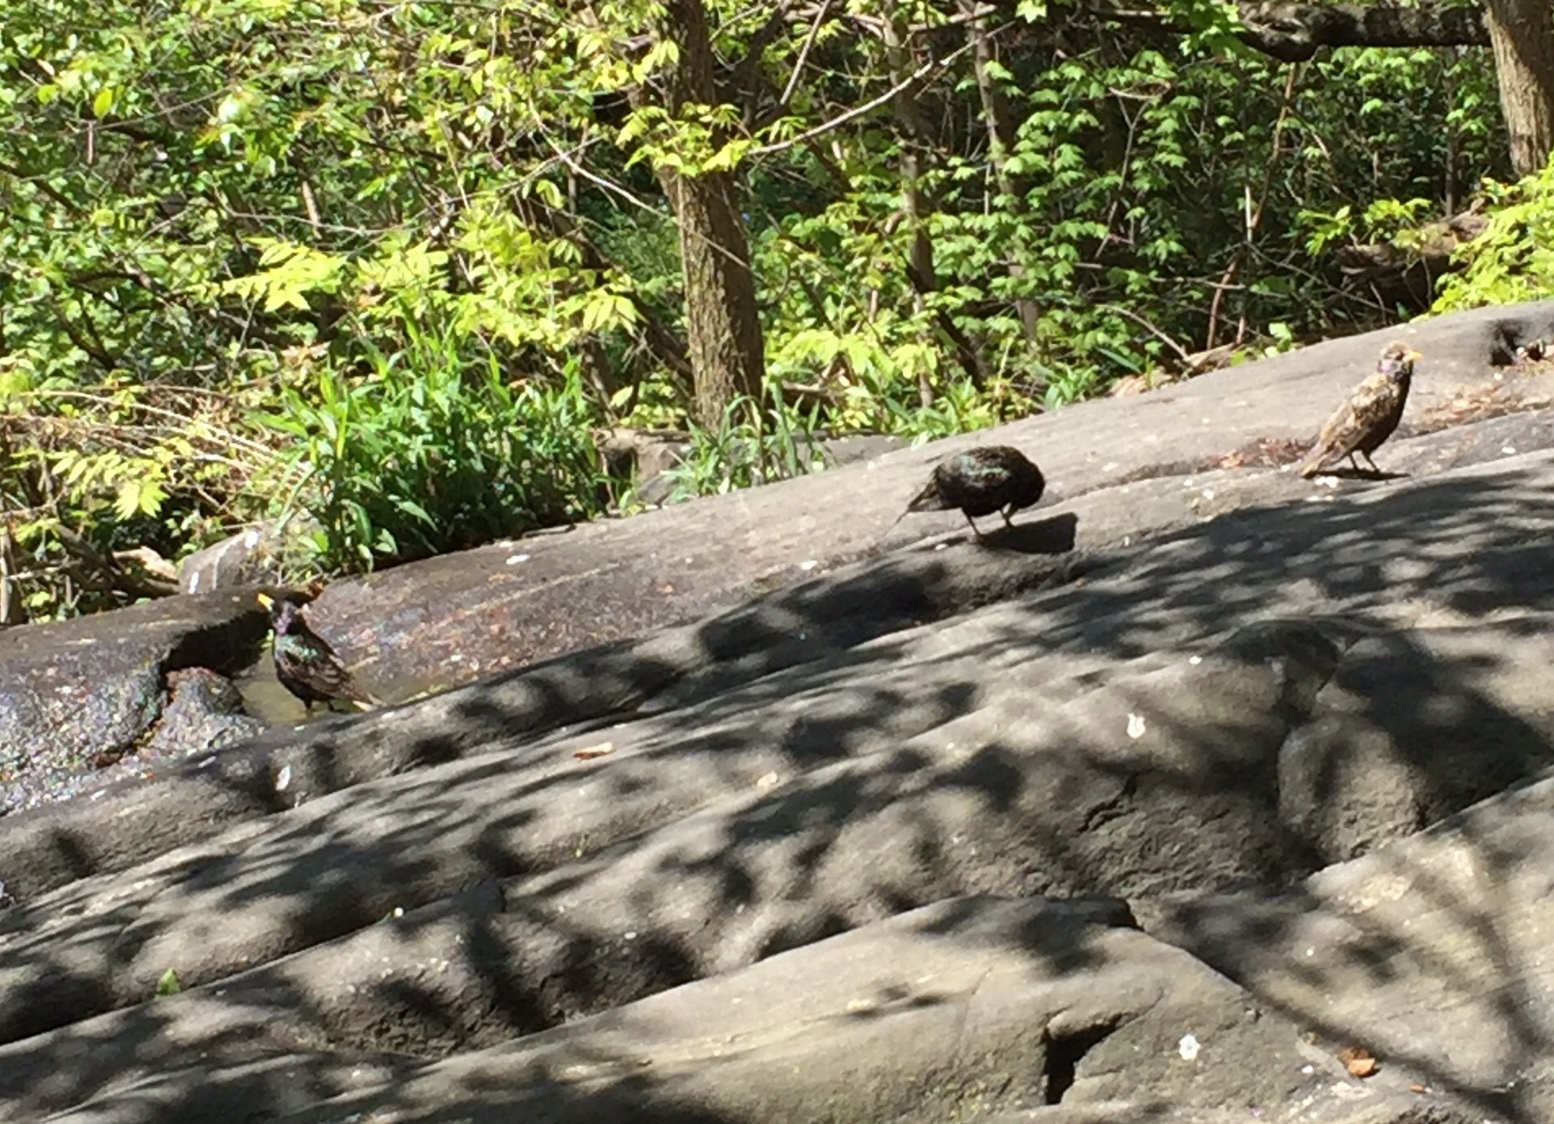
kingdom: Animalia
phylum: Chordata
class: Aves
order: Passeriformes
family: Sturnidae
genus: Sturnus
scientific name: Sturnus vulgaris
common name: Common starling
